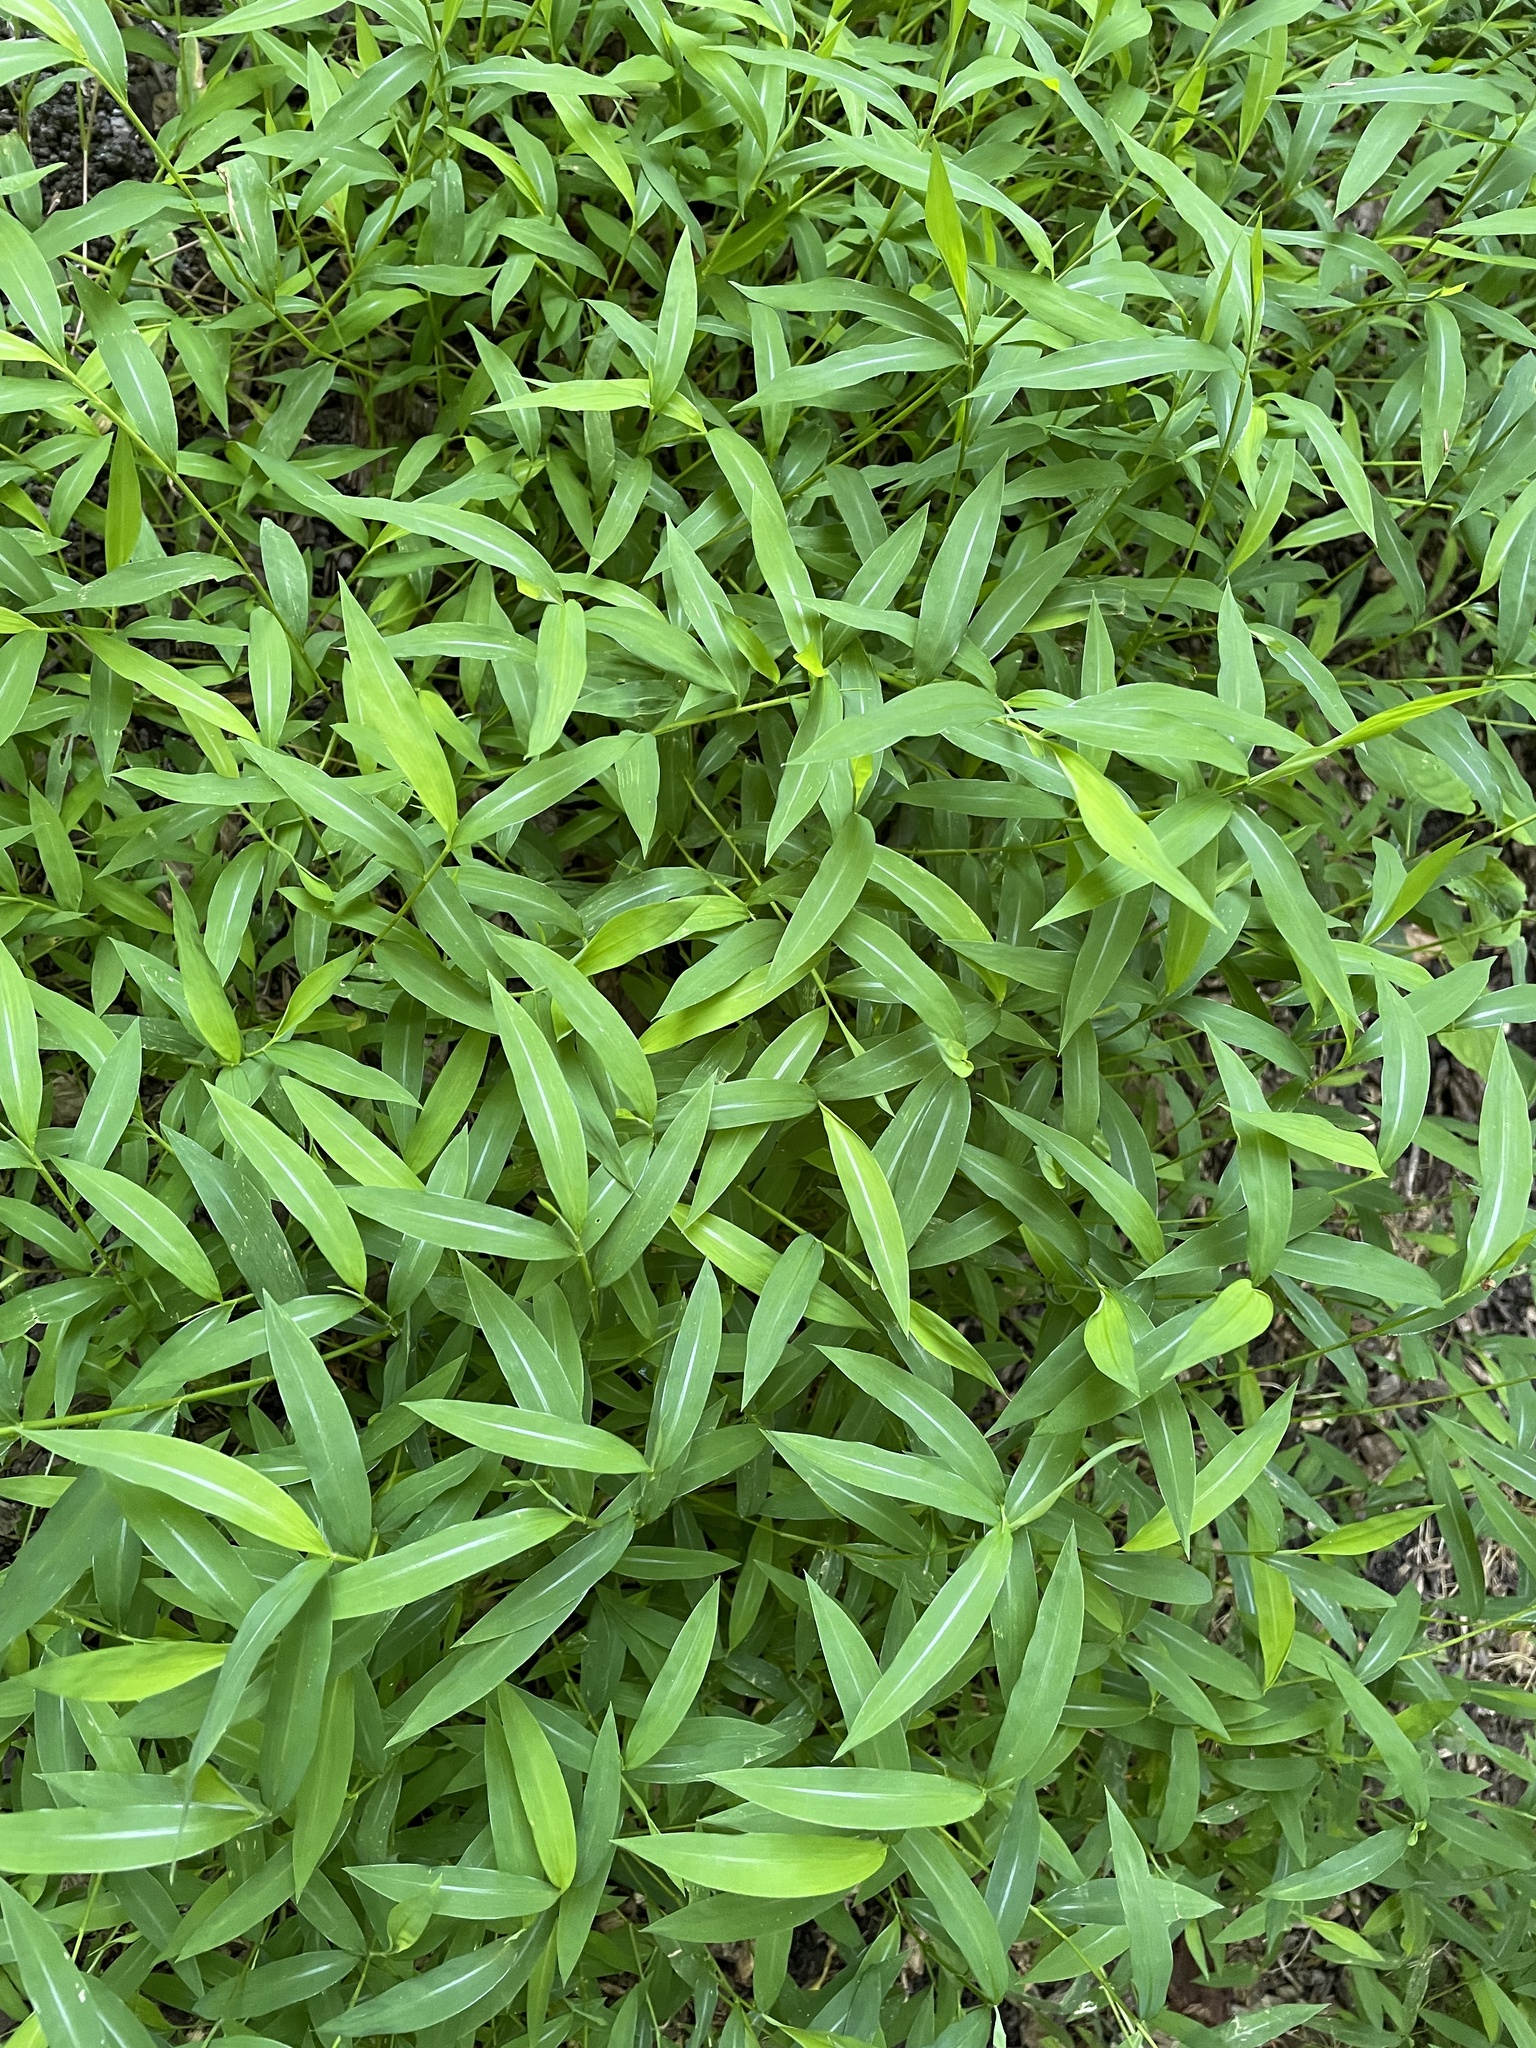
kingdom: Plantae
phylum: Tracheophyta
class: Liliopsida
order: Poales
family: Poaceae
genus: Microstegium
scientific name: Microstegium vimineum
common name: Japanese stiltgrass
